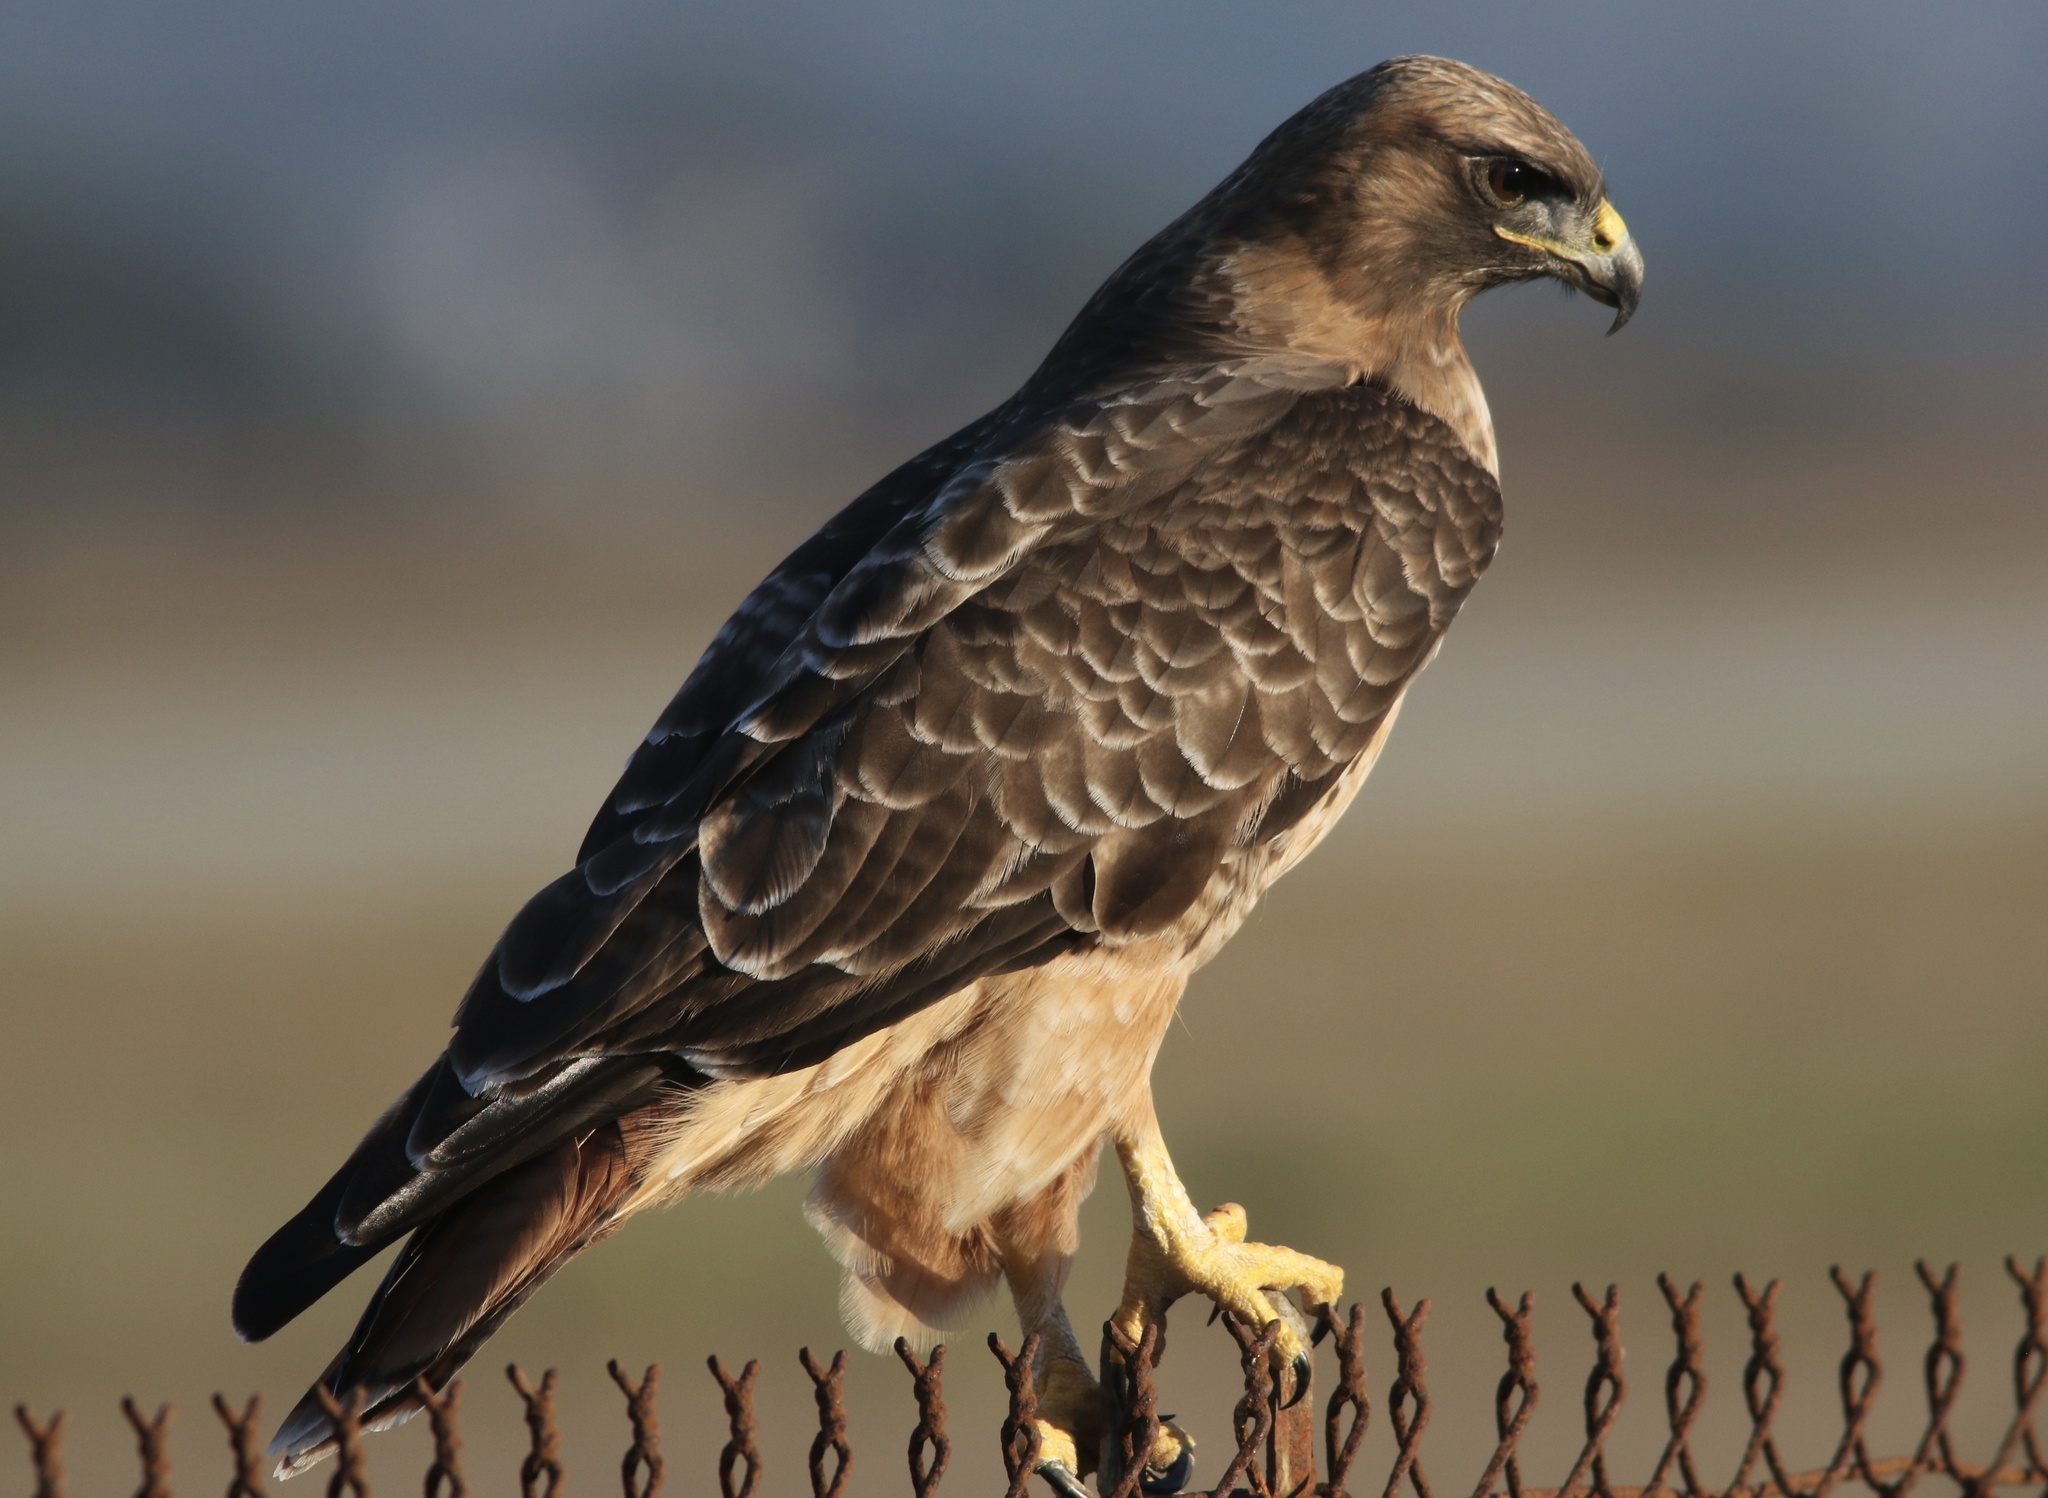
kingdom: Animalia
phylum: Chordata
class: Aves
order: Accipitriformes
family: Accipitridae
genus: Buteo
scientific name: Buteo jamaicensis
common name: Red-tailed hawk
